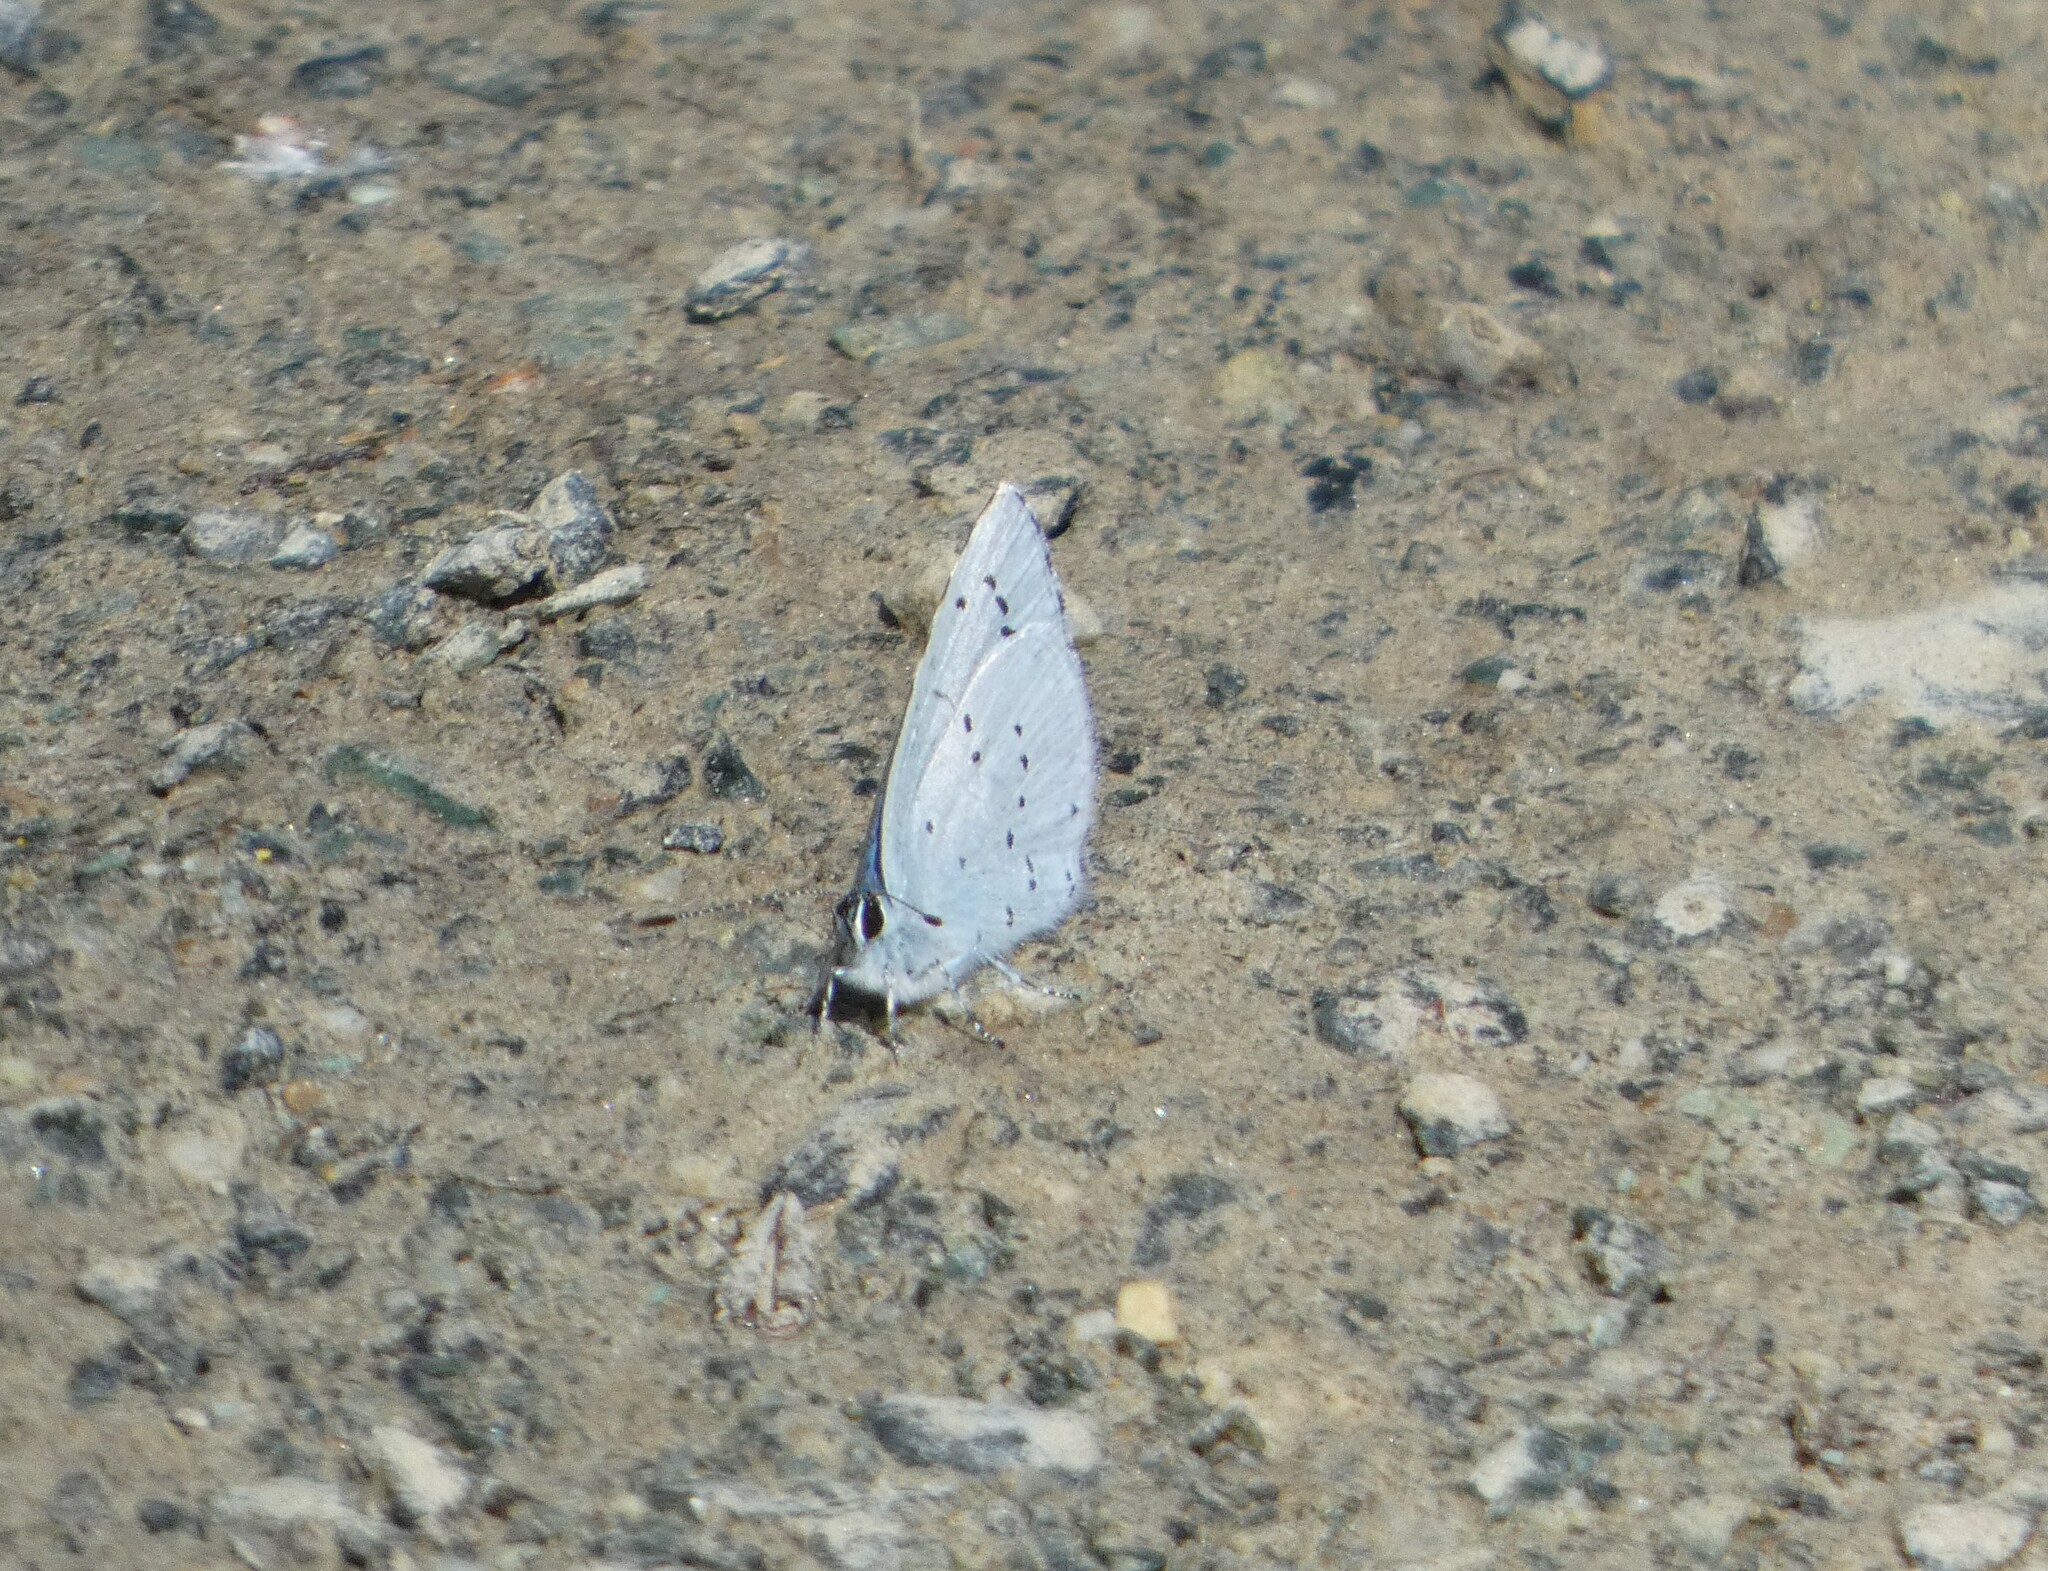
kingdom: Animalia
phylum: Arthropoda
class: Insecta
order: Lepidoptera
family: Lycaenidae
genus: Celastrina
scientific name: Celastrina argiolus
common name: Holly blue
